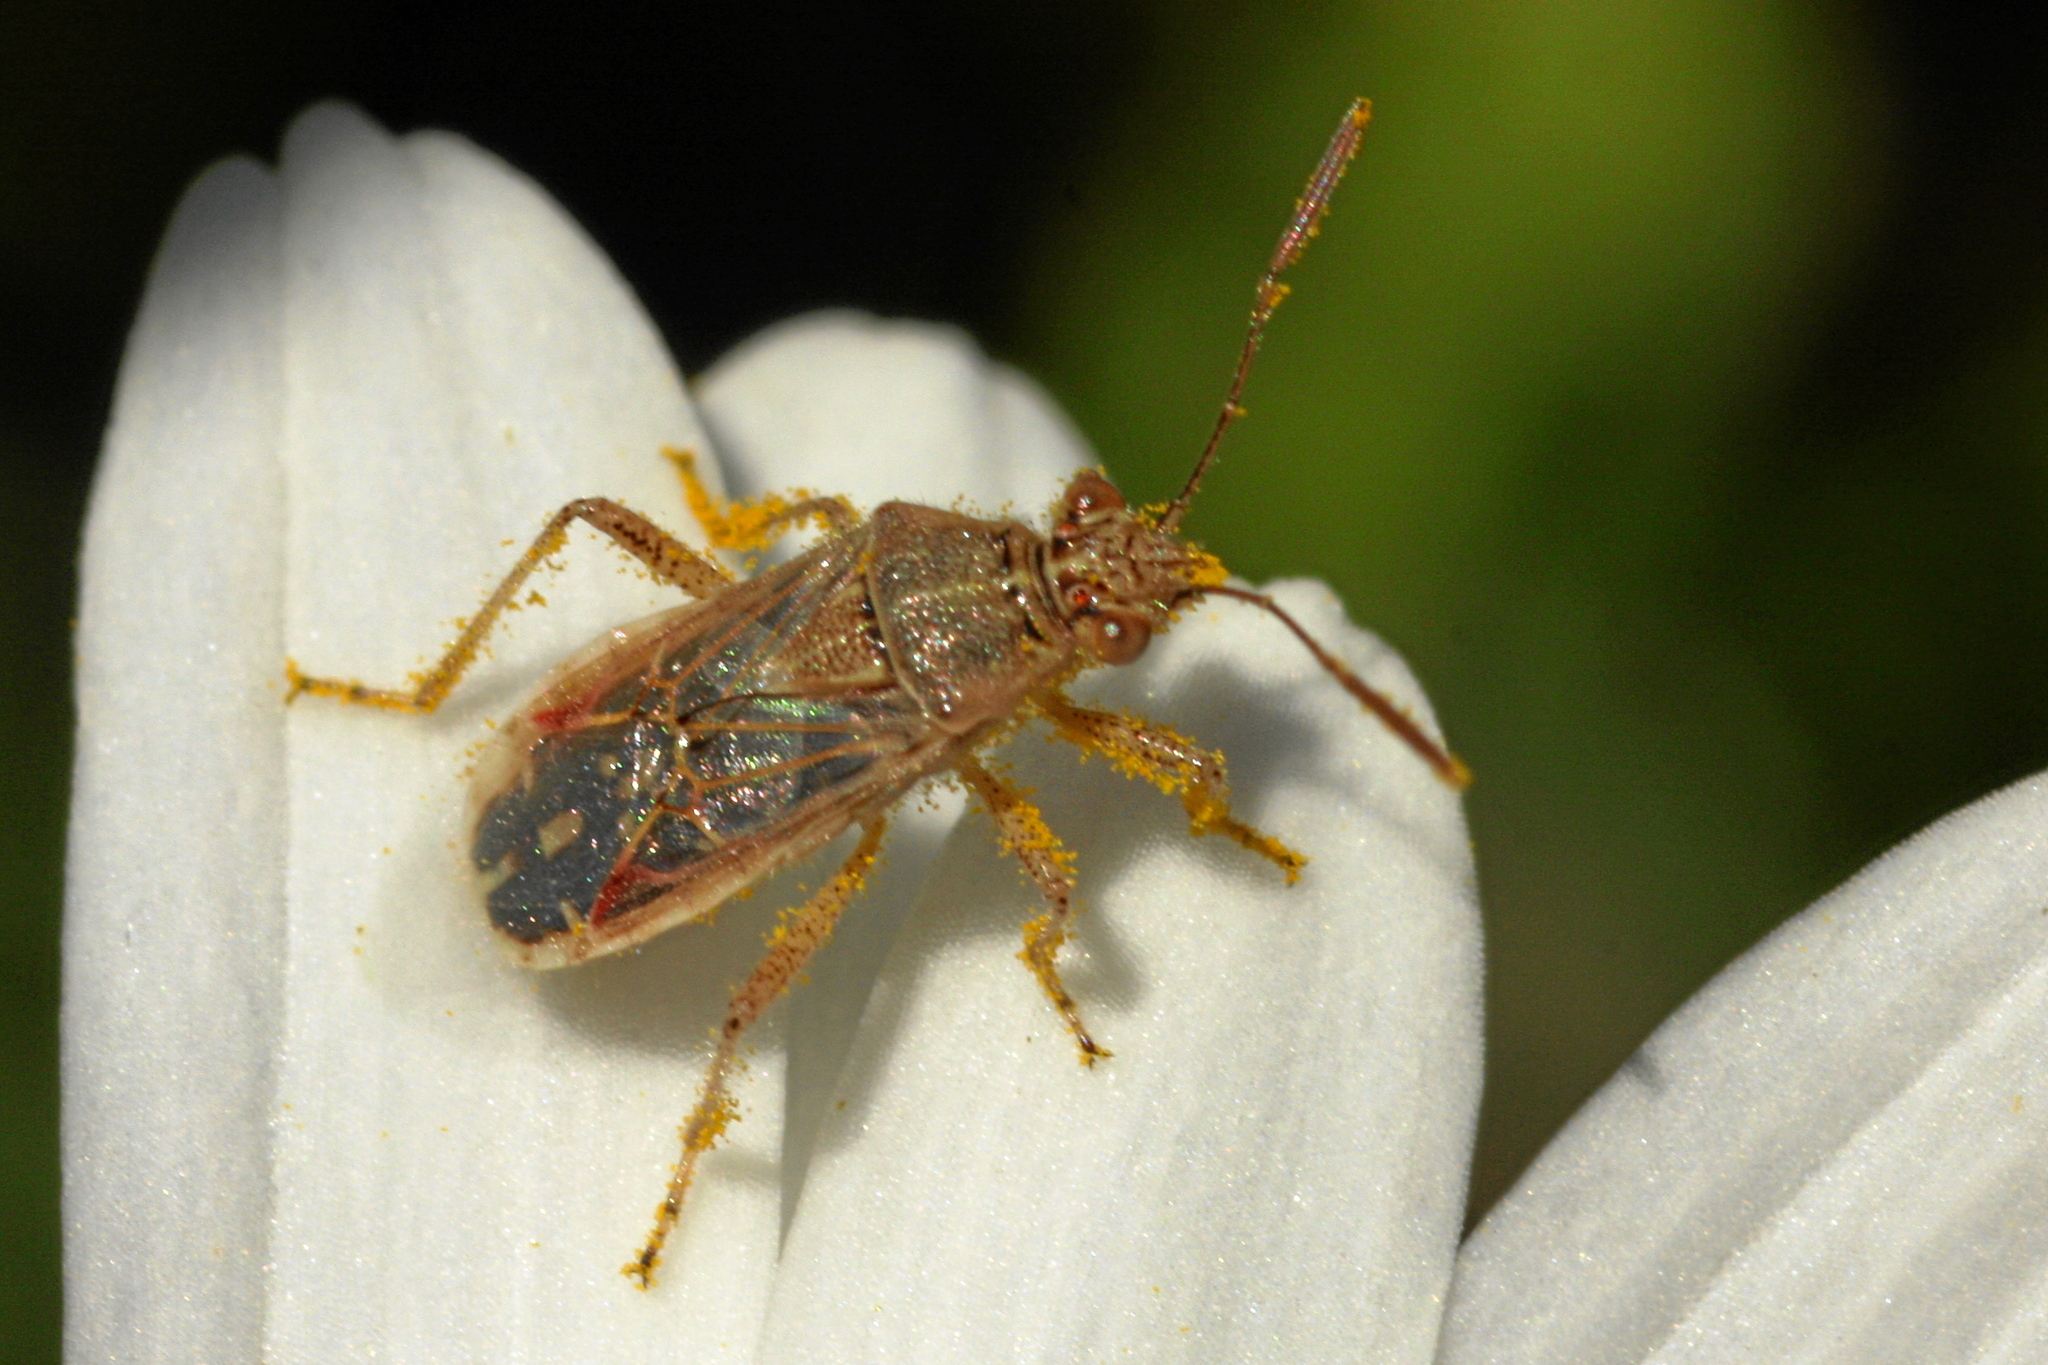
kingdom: Animalia
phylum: Arthropoda
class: Insecta
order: Hemiptera
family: Rhopalidae
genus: Liorhyssus
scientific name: Liorhyssus hyalinus
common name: Scentless plant bug
